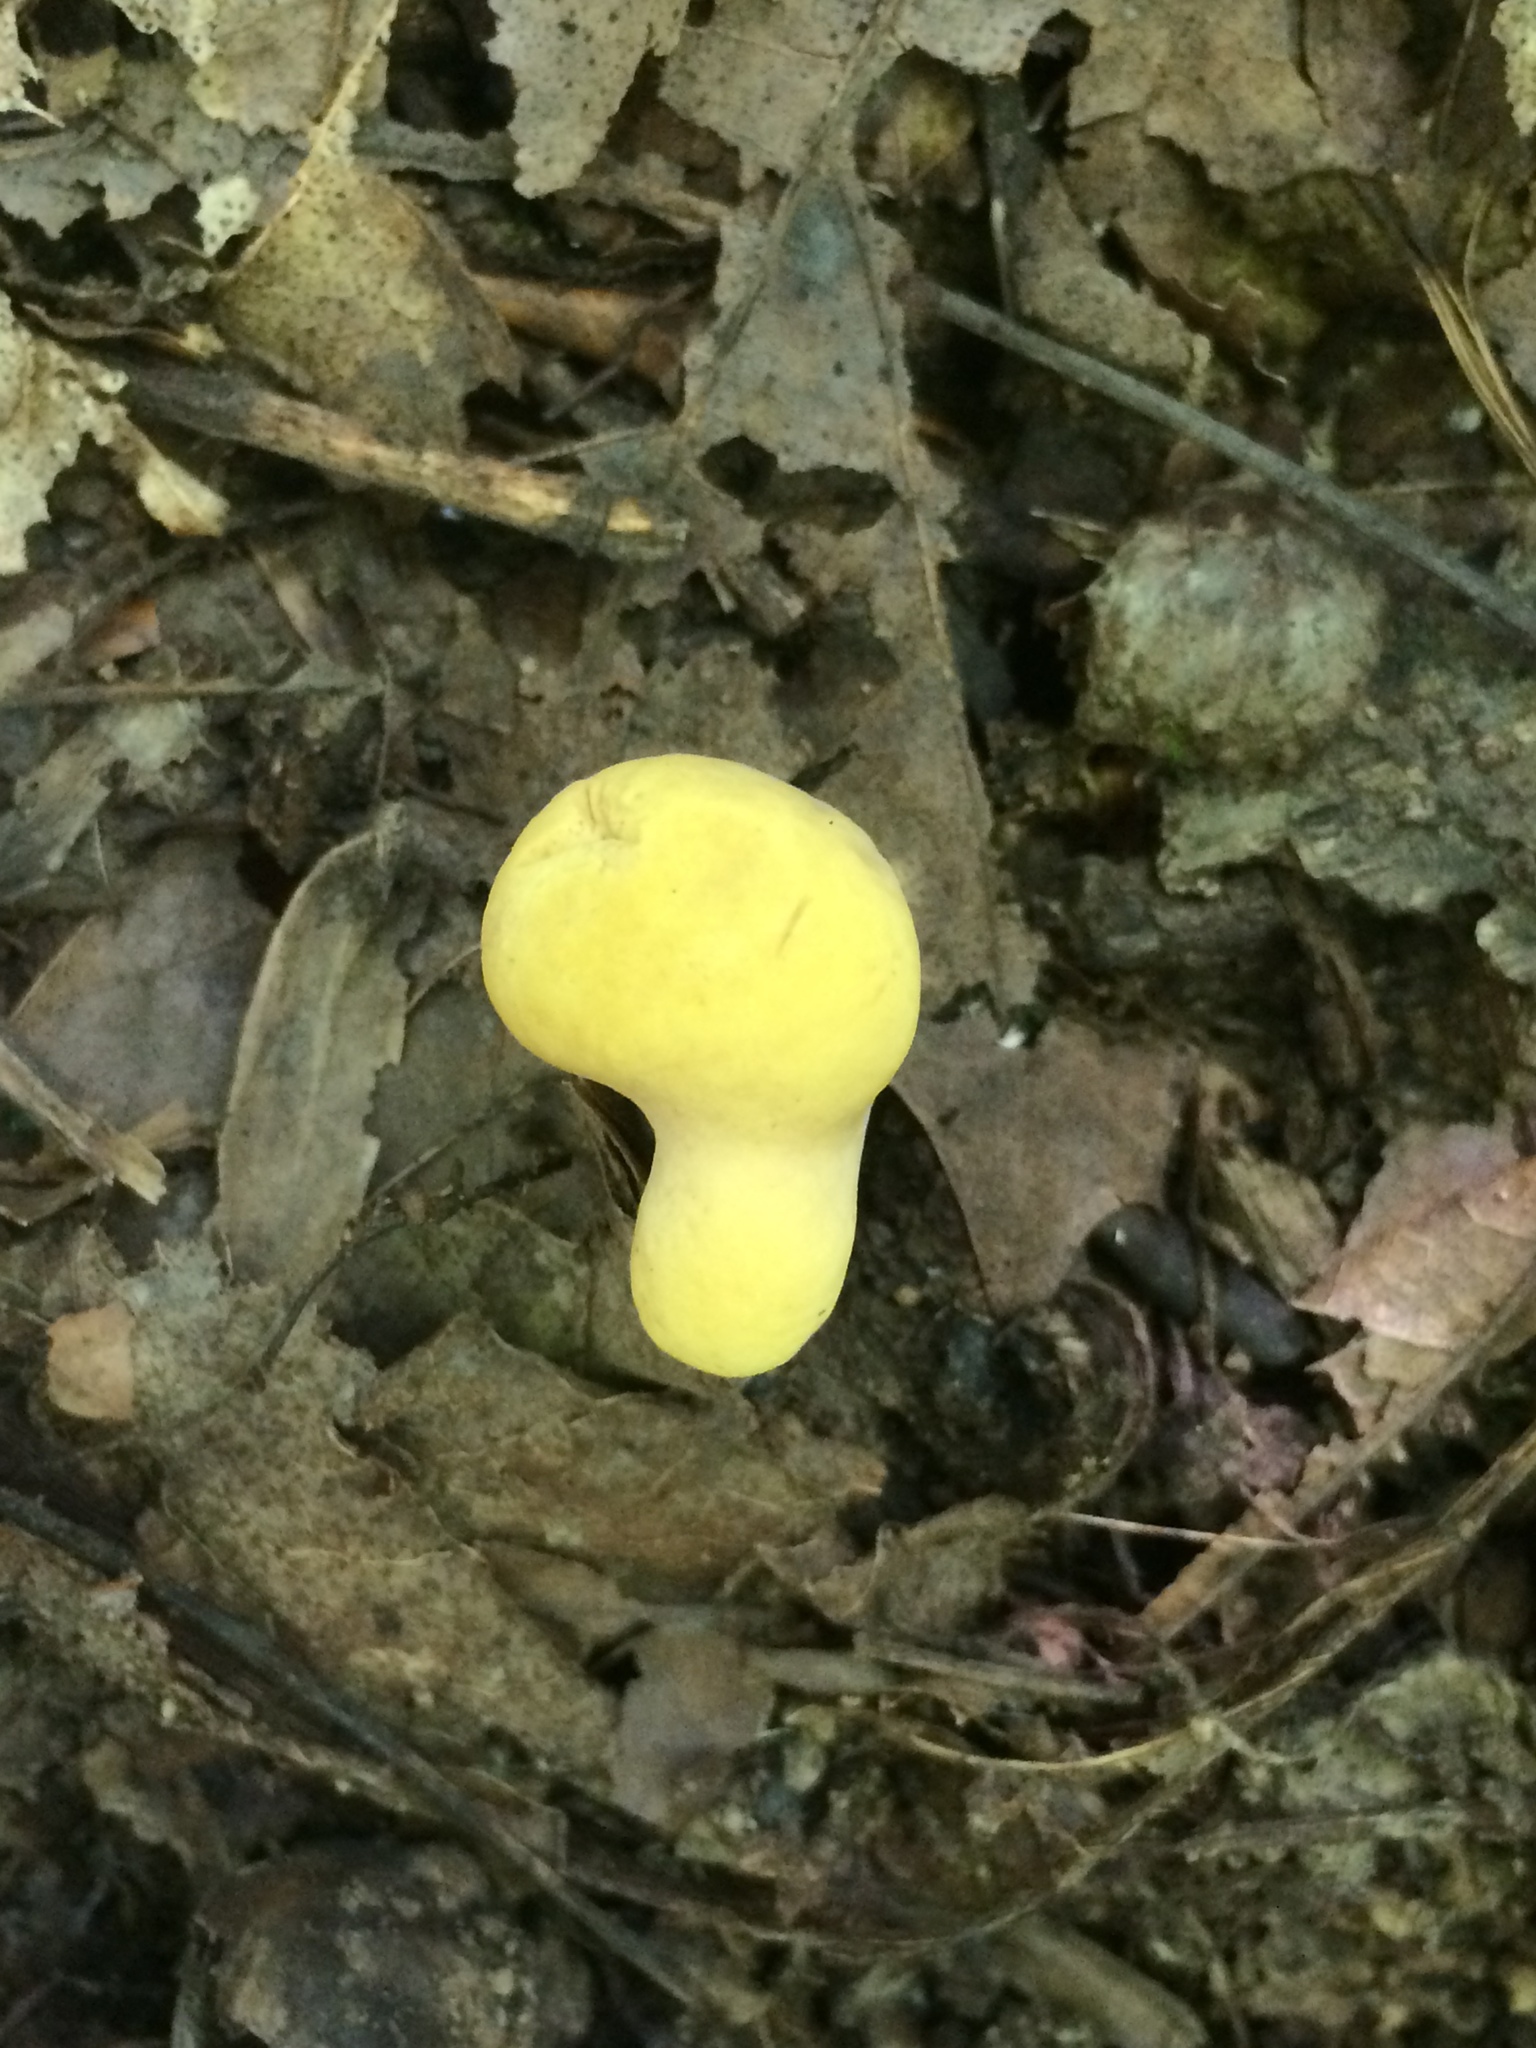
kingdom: Fungi
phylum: Basidiomycota
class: Agaricomycetes
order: Gomphales
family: Clavariadelphaceae
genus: Clavariadelphus
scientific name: Clavariadelphus unicolor
